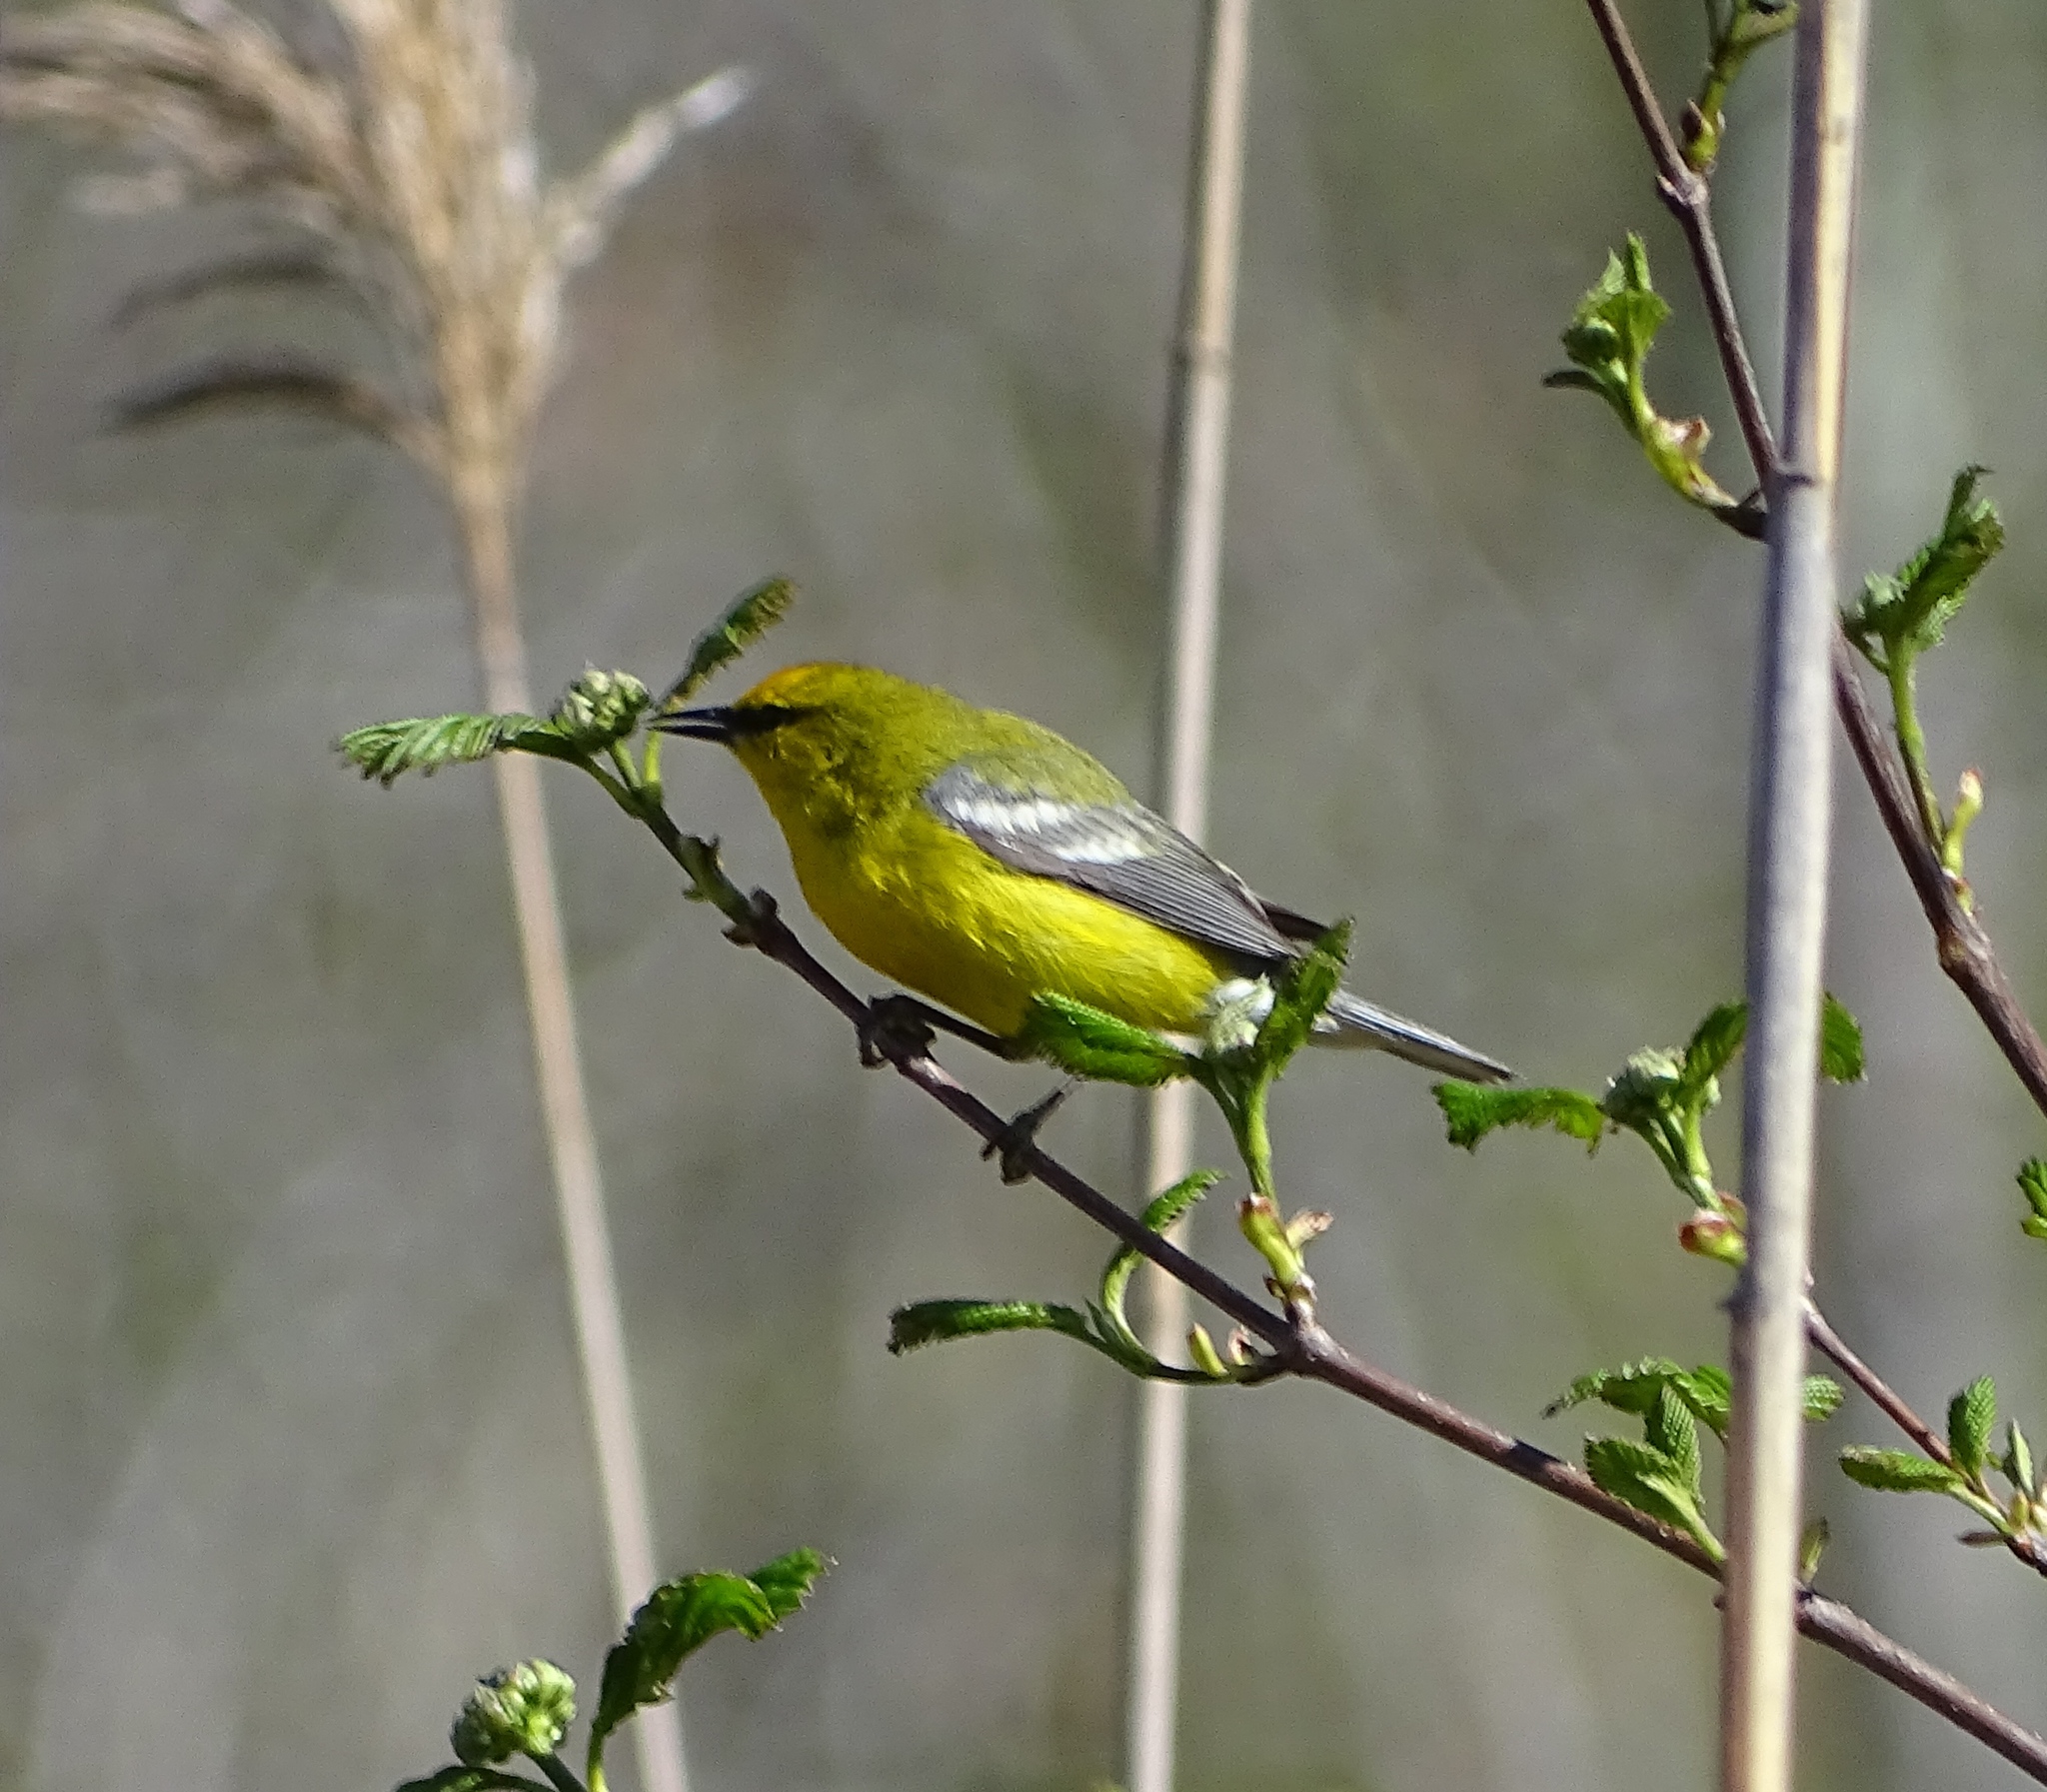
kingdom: Animalia
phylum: Chordata
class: Aves
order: Passeriformes
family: Parulidae
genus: Vermivora
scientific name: Vermivora cyanoptera
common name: Blue-winged warbler
